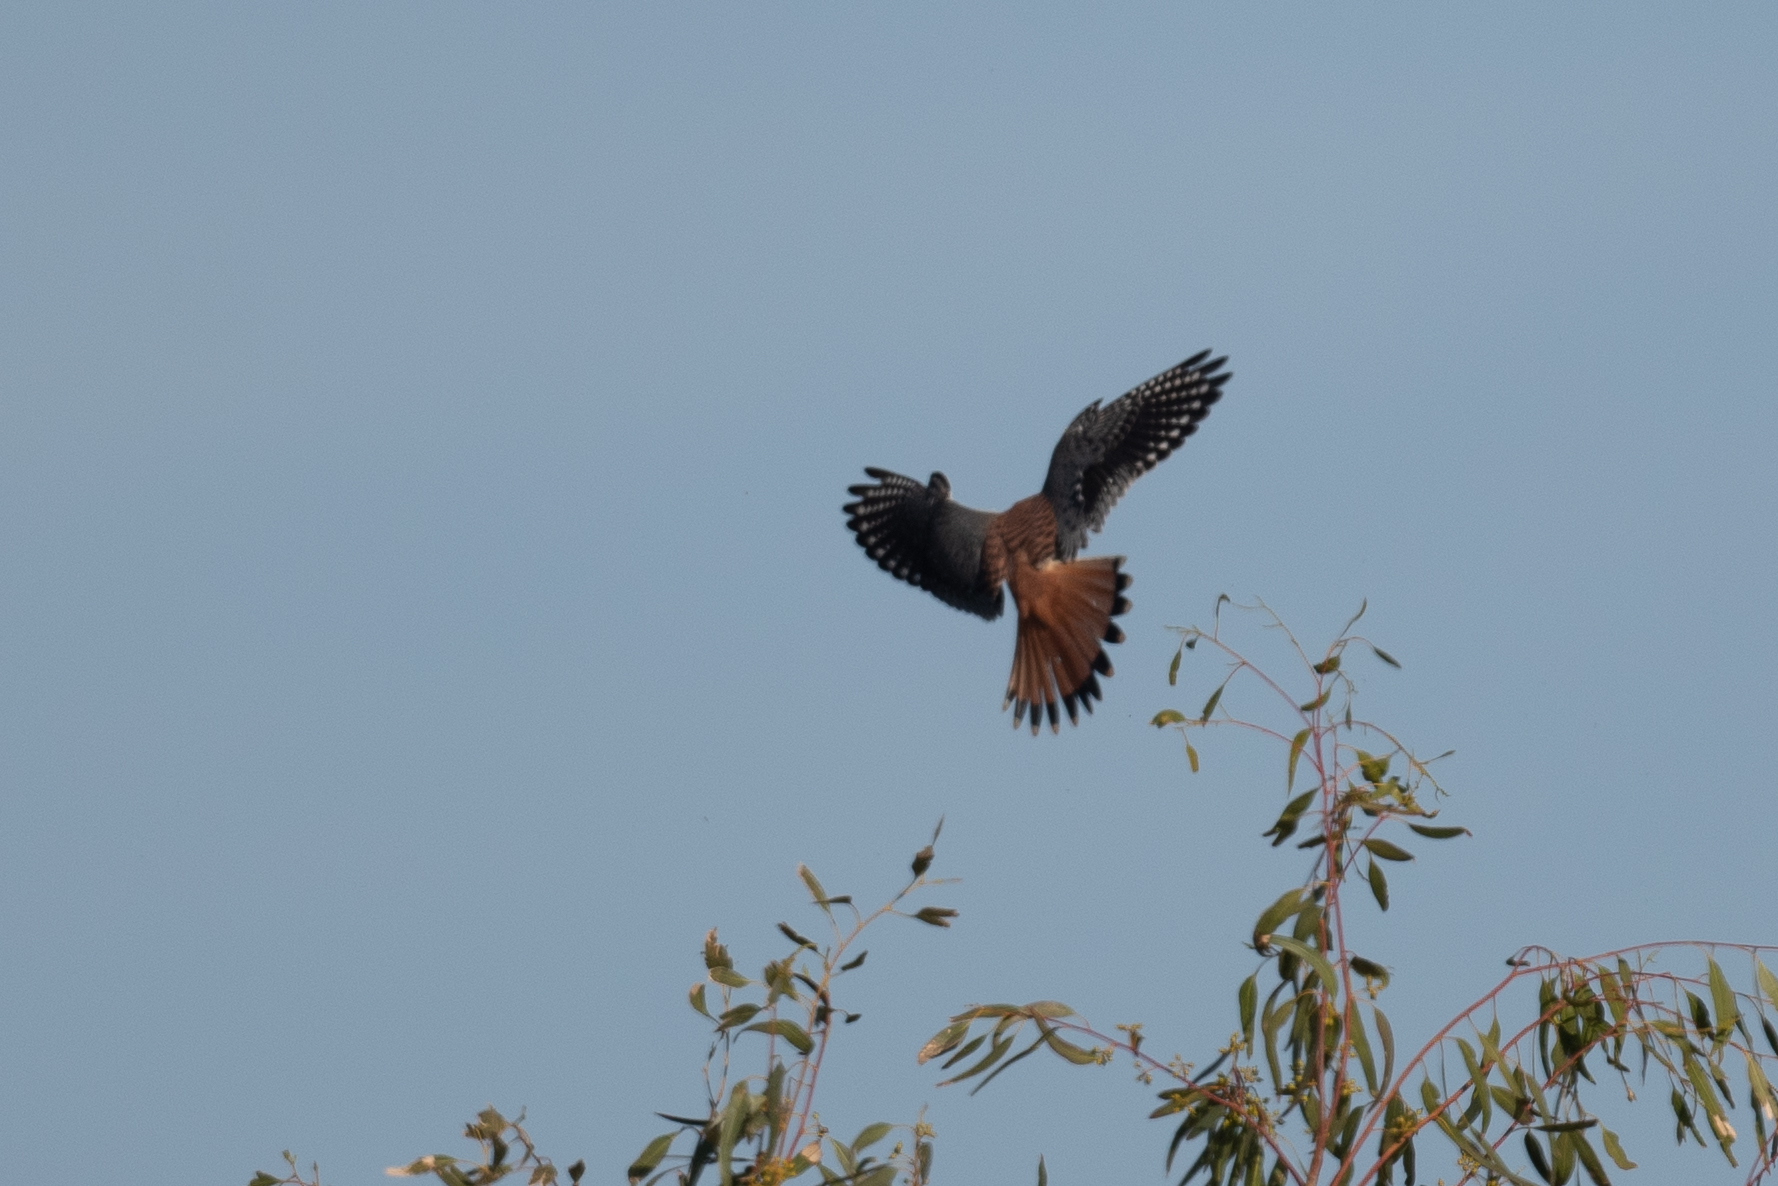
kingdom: Animalia
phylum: Chordata
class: Aves
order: Falconiformes
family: Falconidae
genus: Falco
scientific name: Falco sparverius
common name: American kestrel
